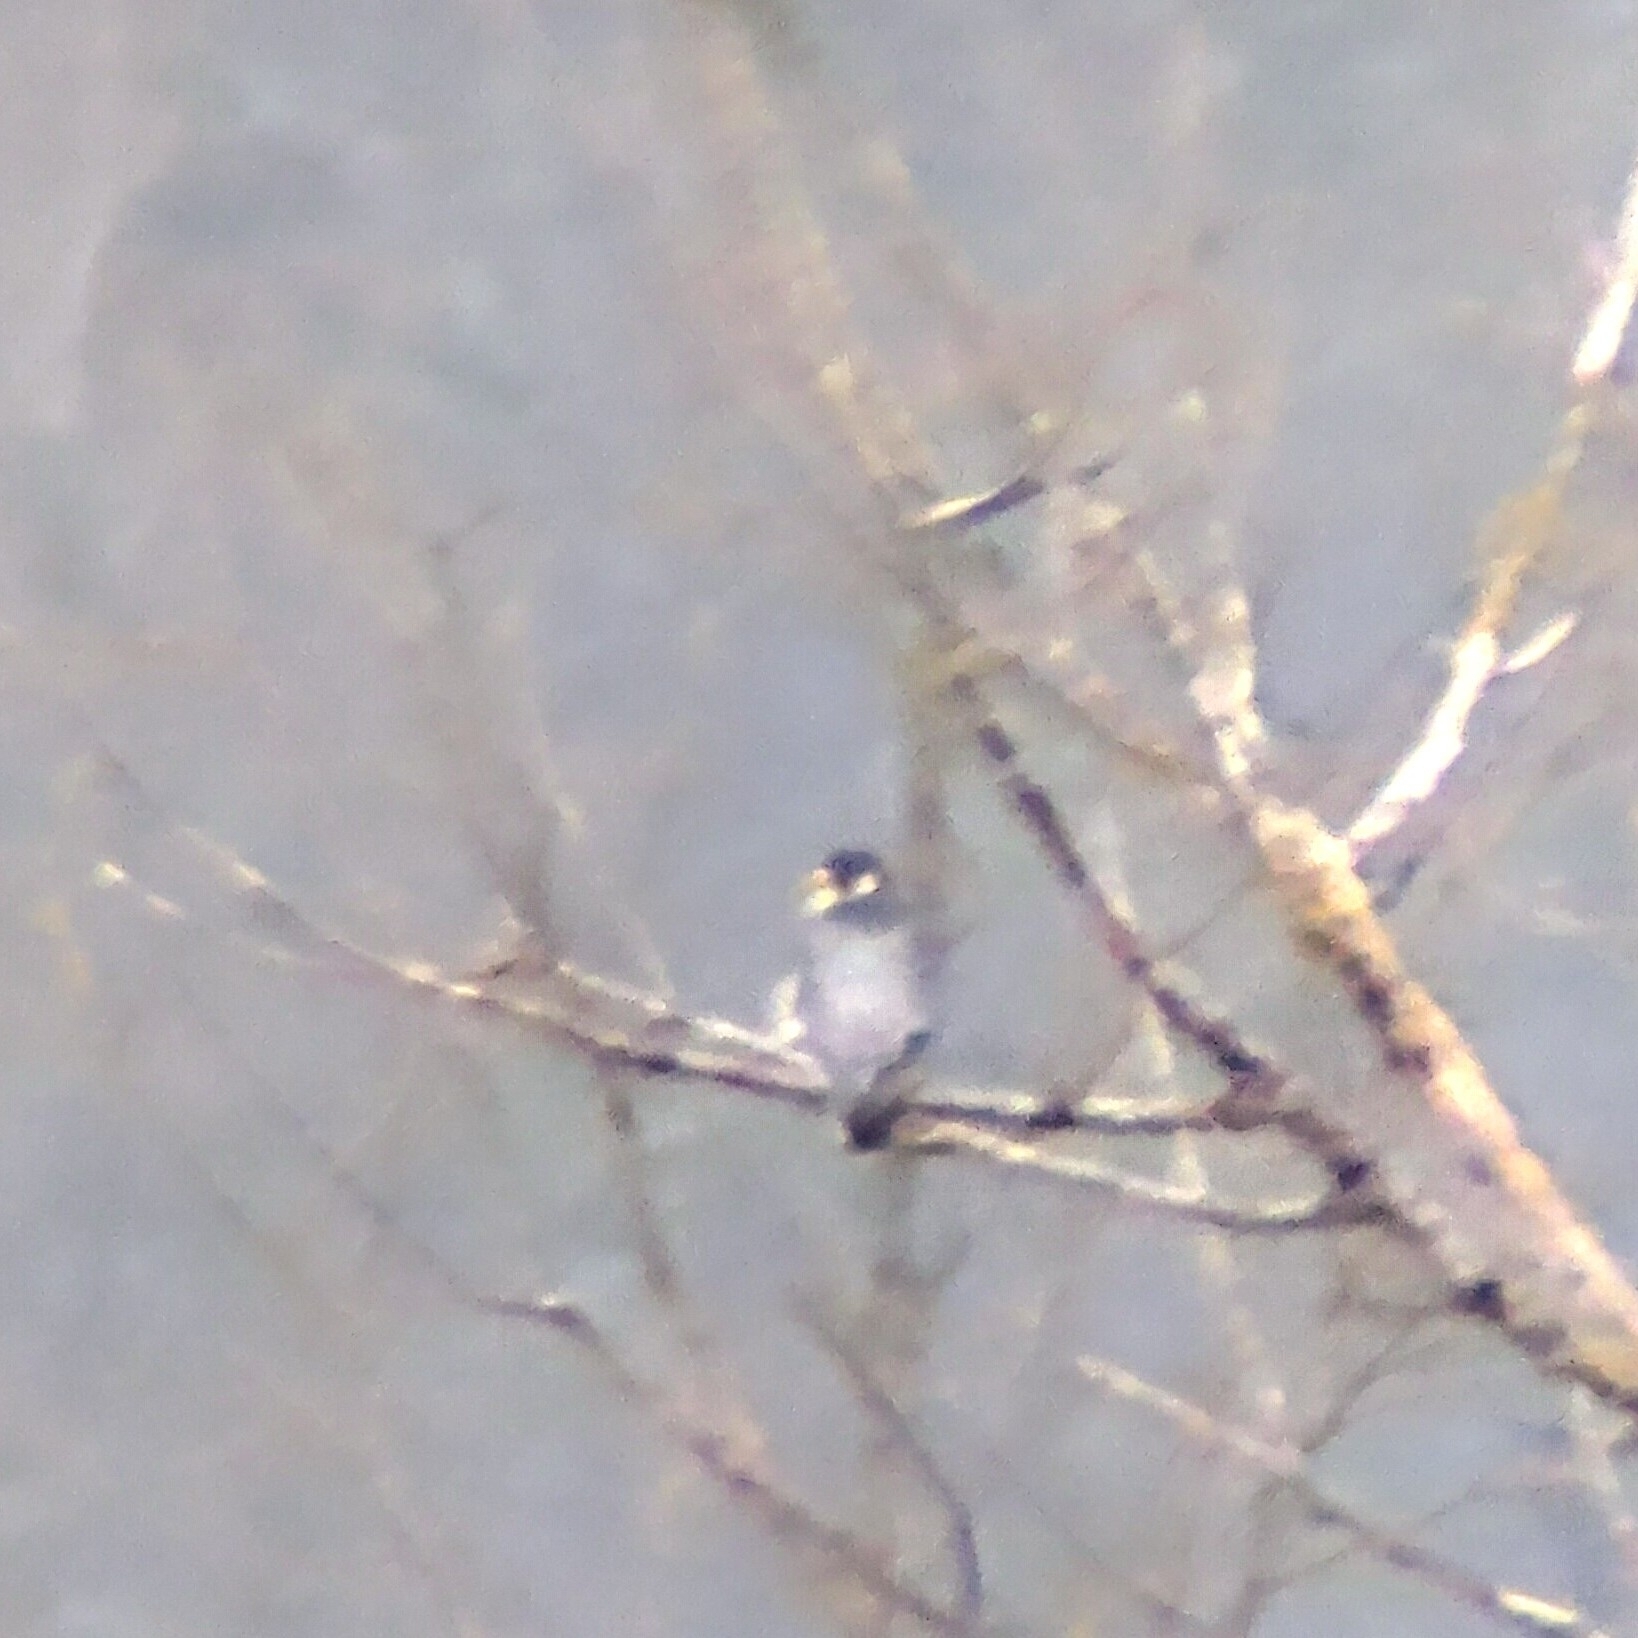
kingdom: Animalia
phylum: Chordata
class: Aves
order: Falconiformes
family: Falconidae
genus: Falco
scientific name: Falco peregrinus
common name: Peregrine falcon
